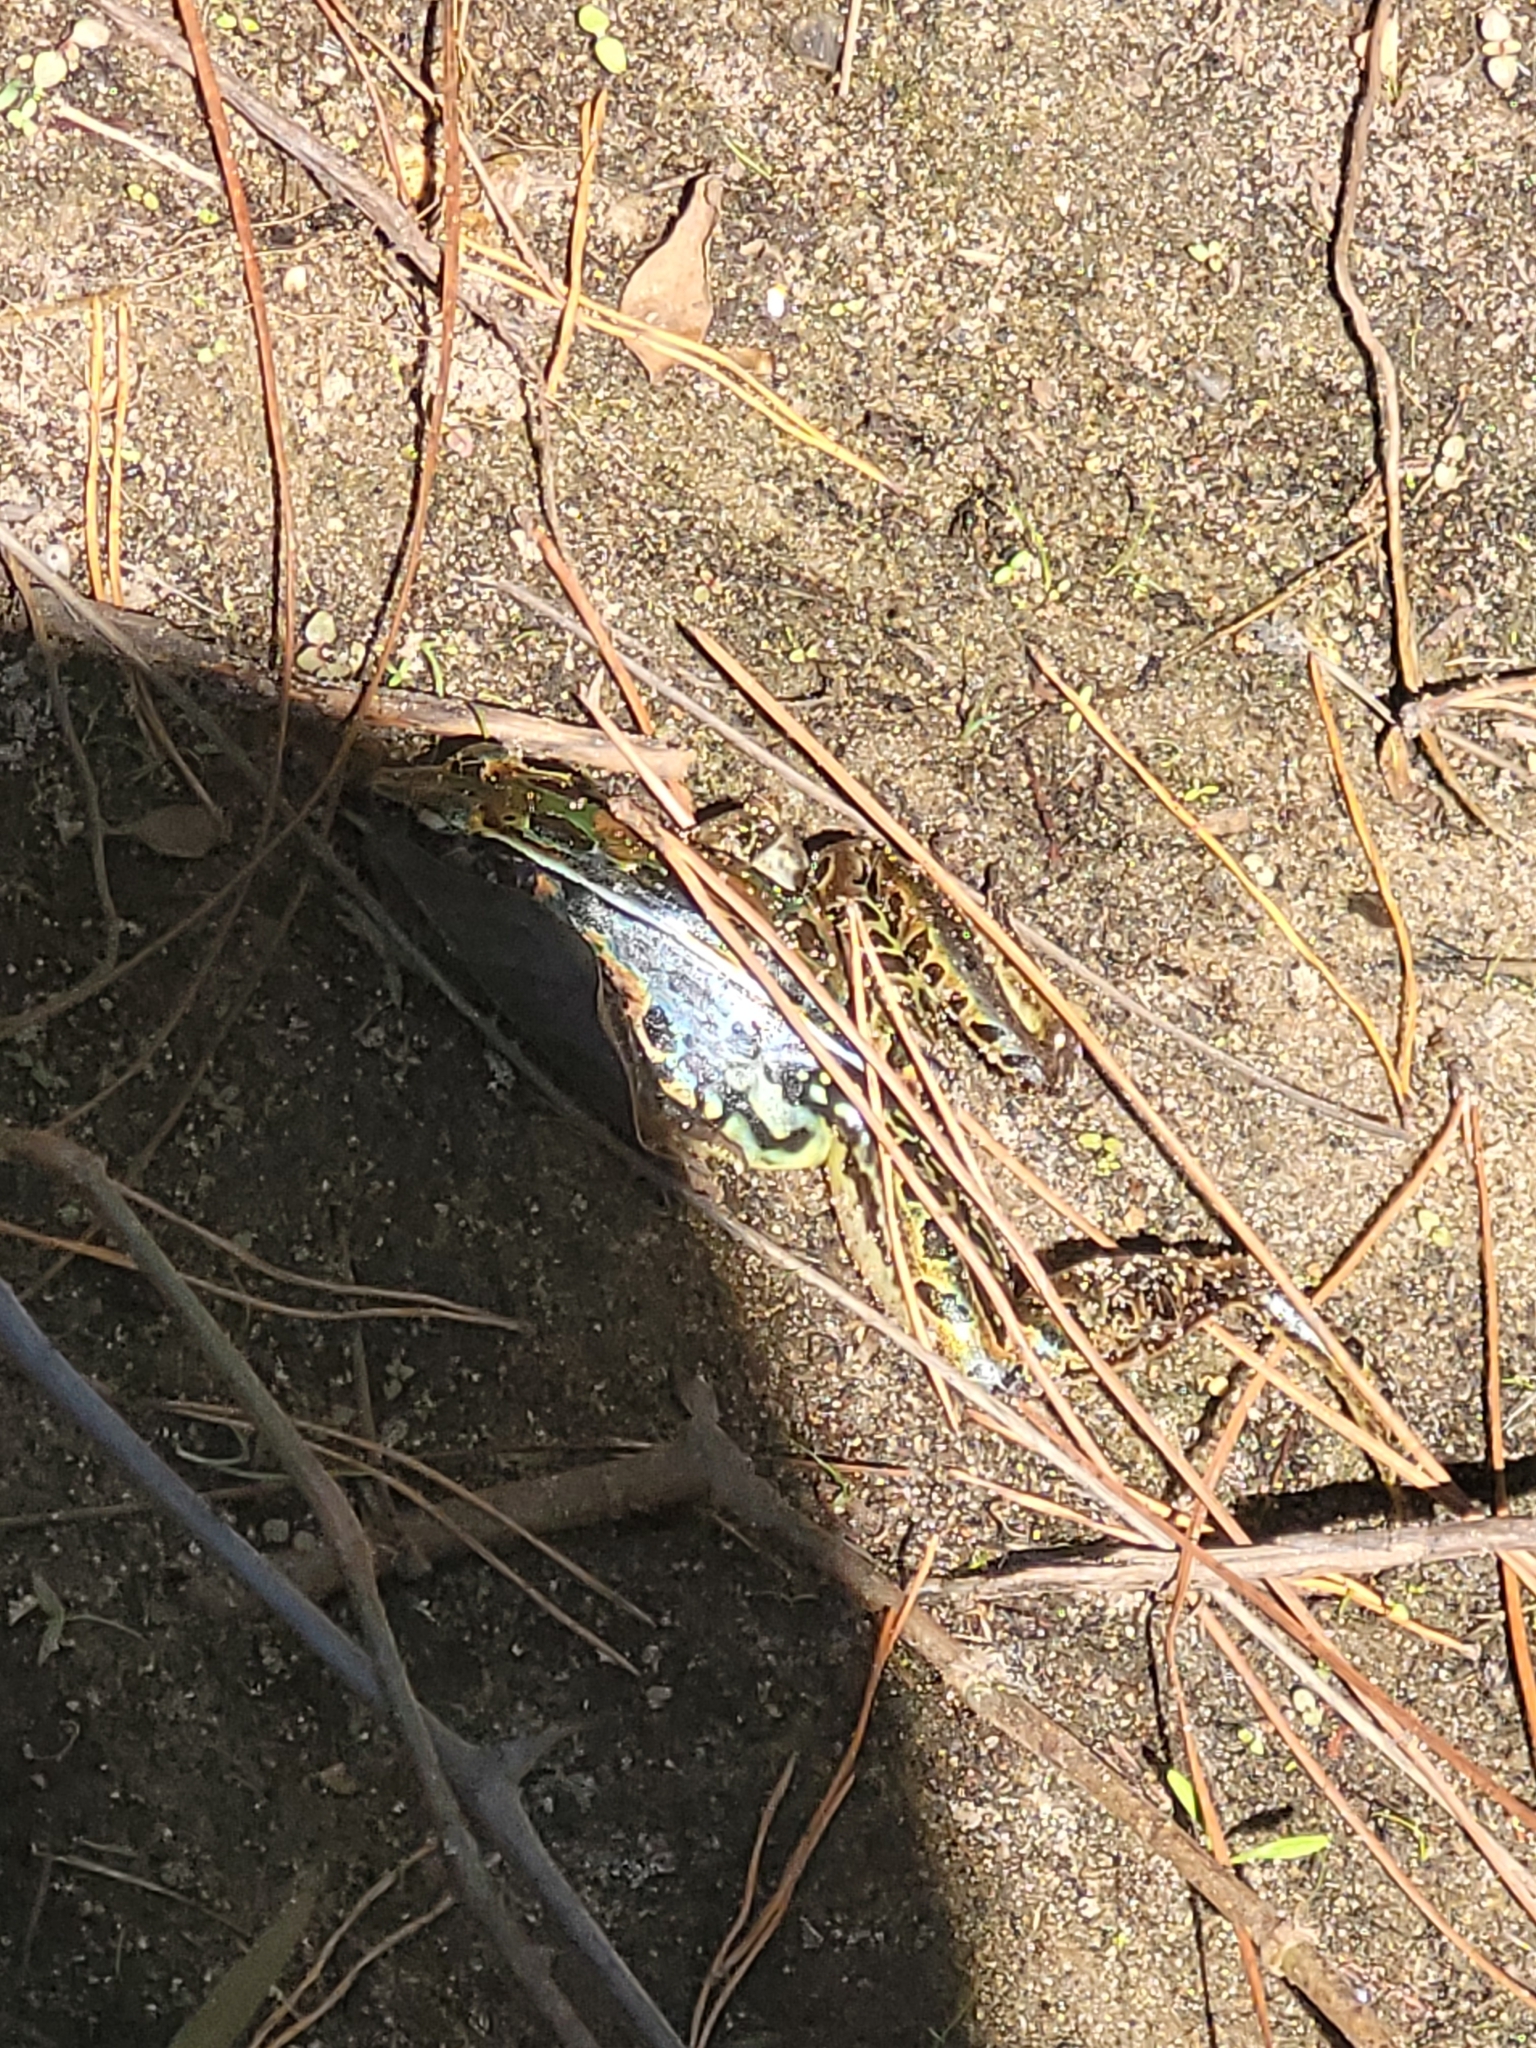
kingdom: Animalia
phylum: Chordata
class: Amphibia
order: Anura
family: Ranidae
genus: Lithobates
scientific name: Lithobates sphenocephalus
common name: Southern leopard frog
